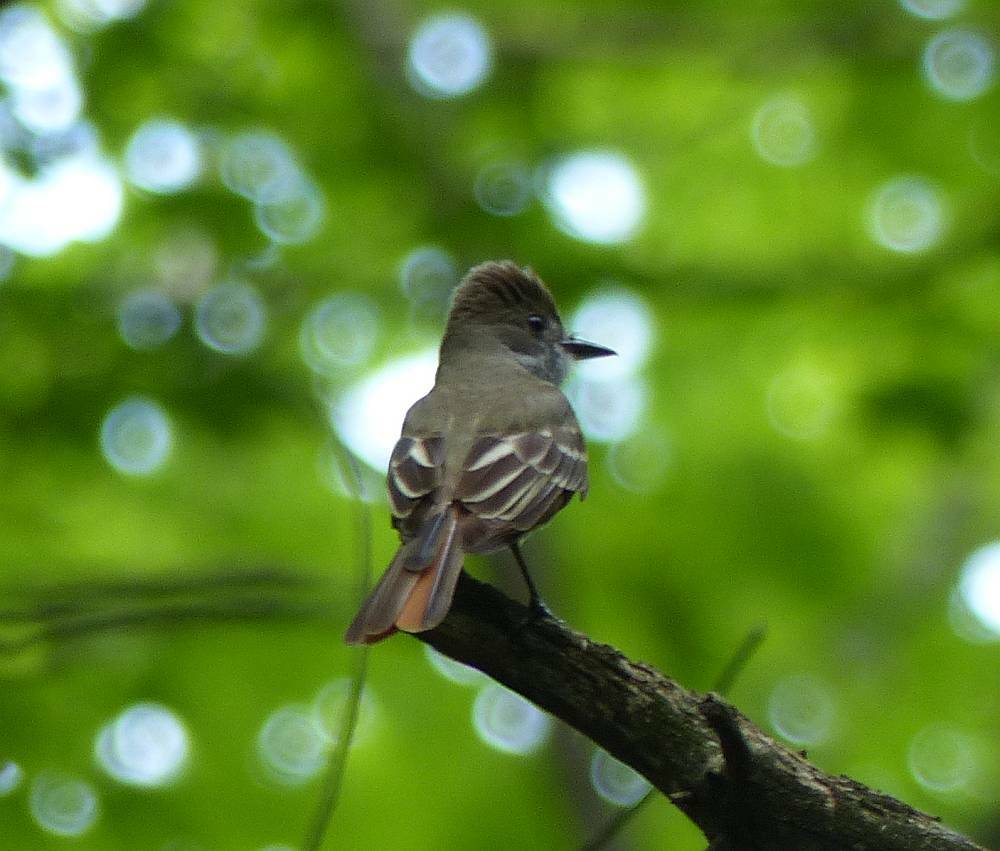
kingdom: Animalia
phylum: Chordata
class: Aves
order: Passeriformes
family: Tyrannidae
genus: Myiarchus
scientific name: Myiarchus crinitus
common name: Great crested flycatcher
